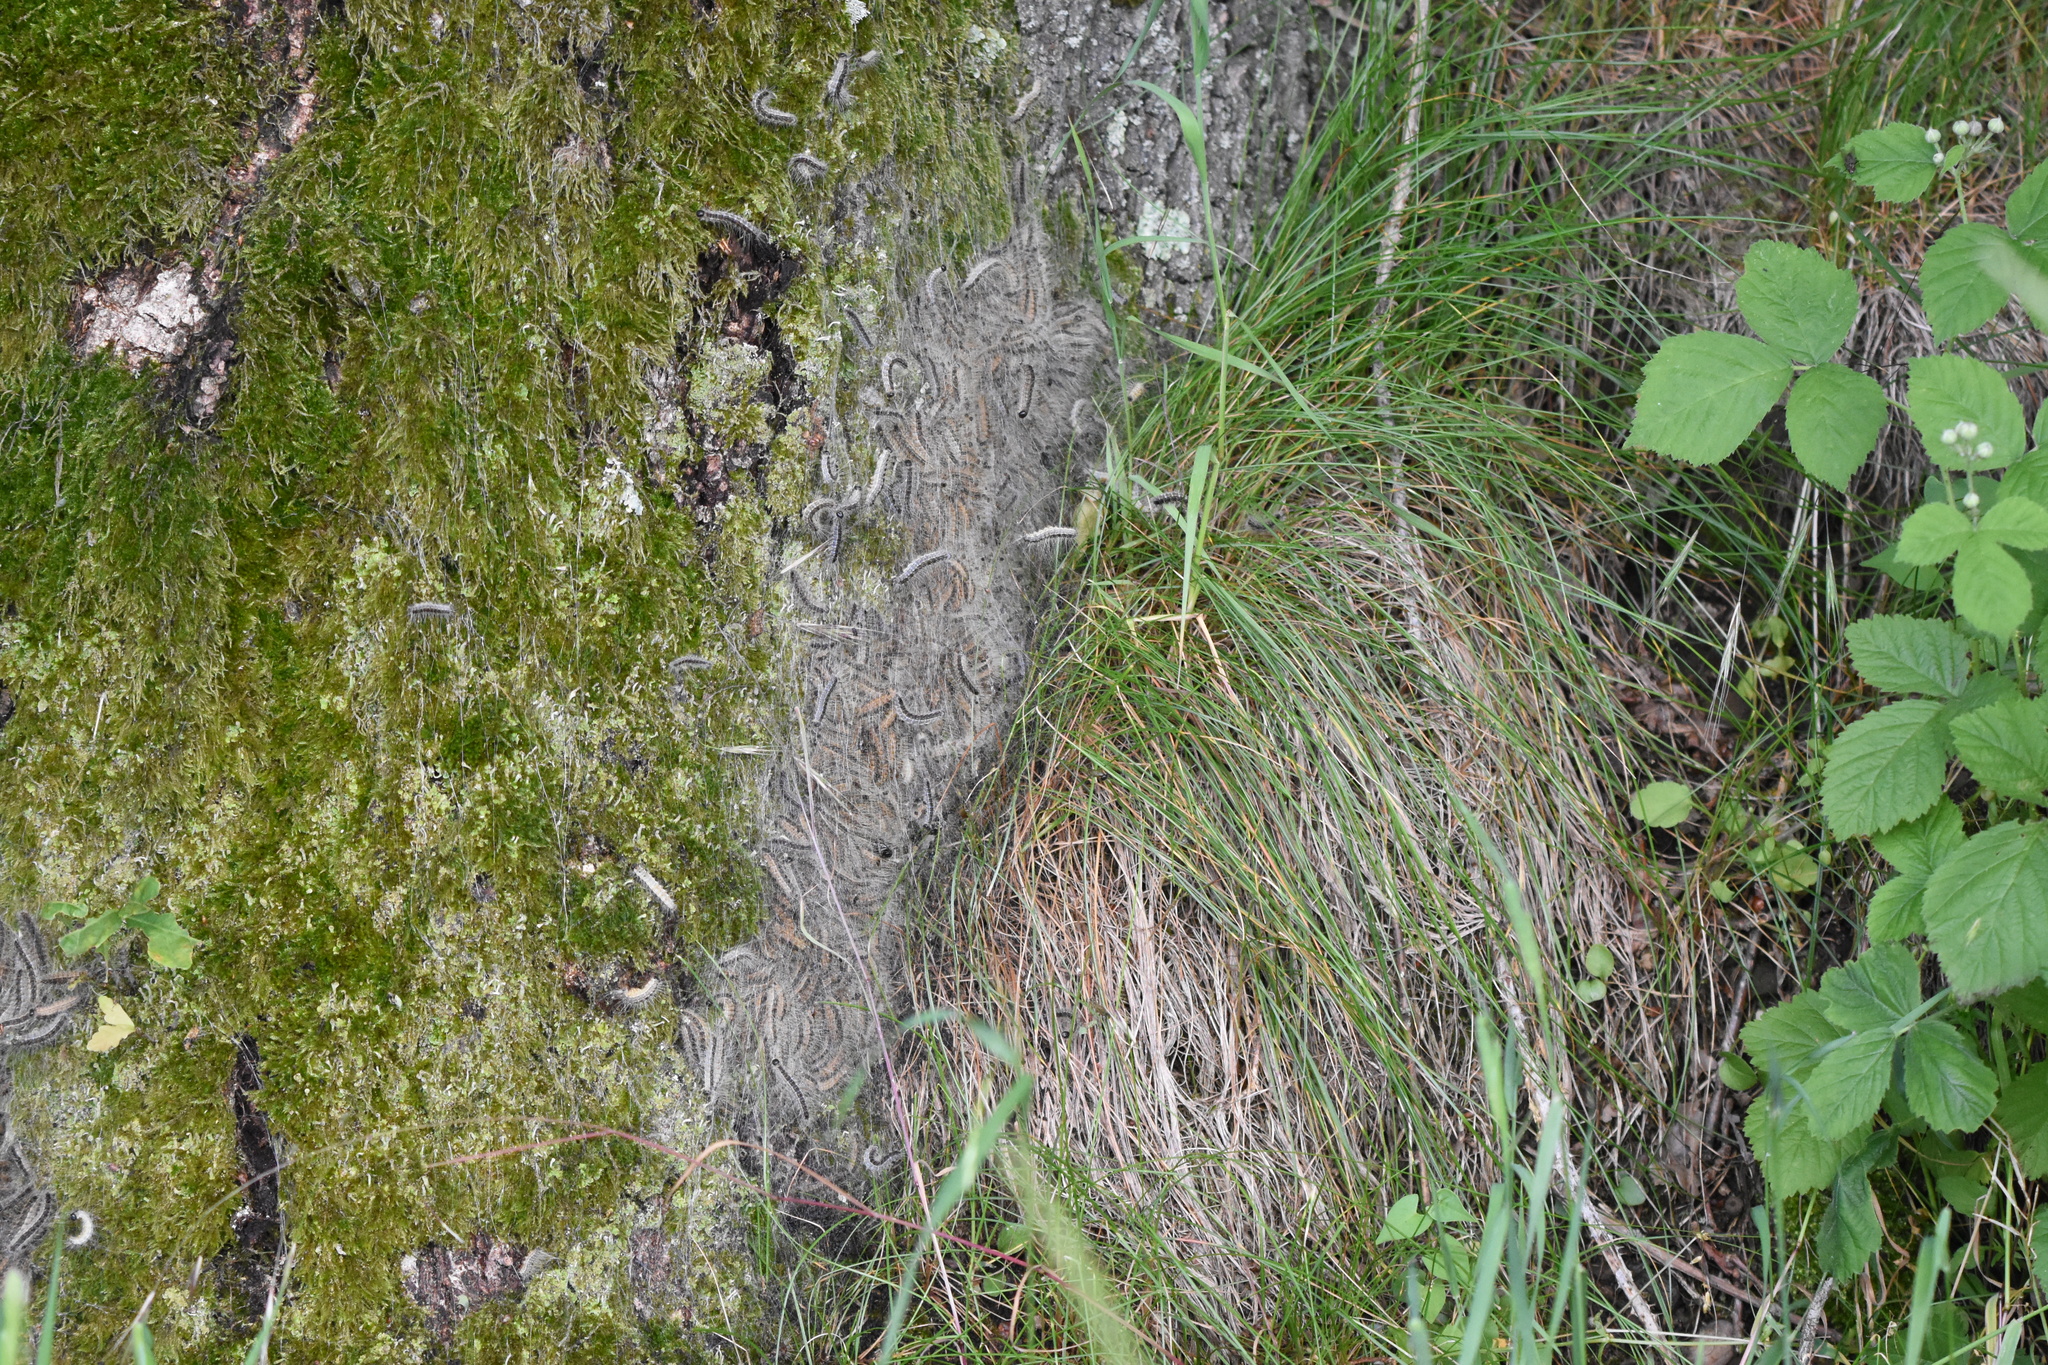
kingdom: Animalia
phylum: Arthropoda
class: Insecta
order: Lepidoptera
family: Notodontidae
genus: Thaumetopoea
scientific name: Thaumetopoea processionea
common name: Oak processionea
